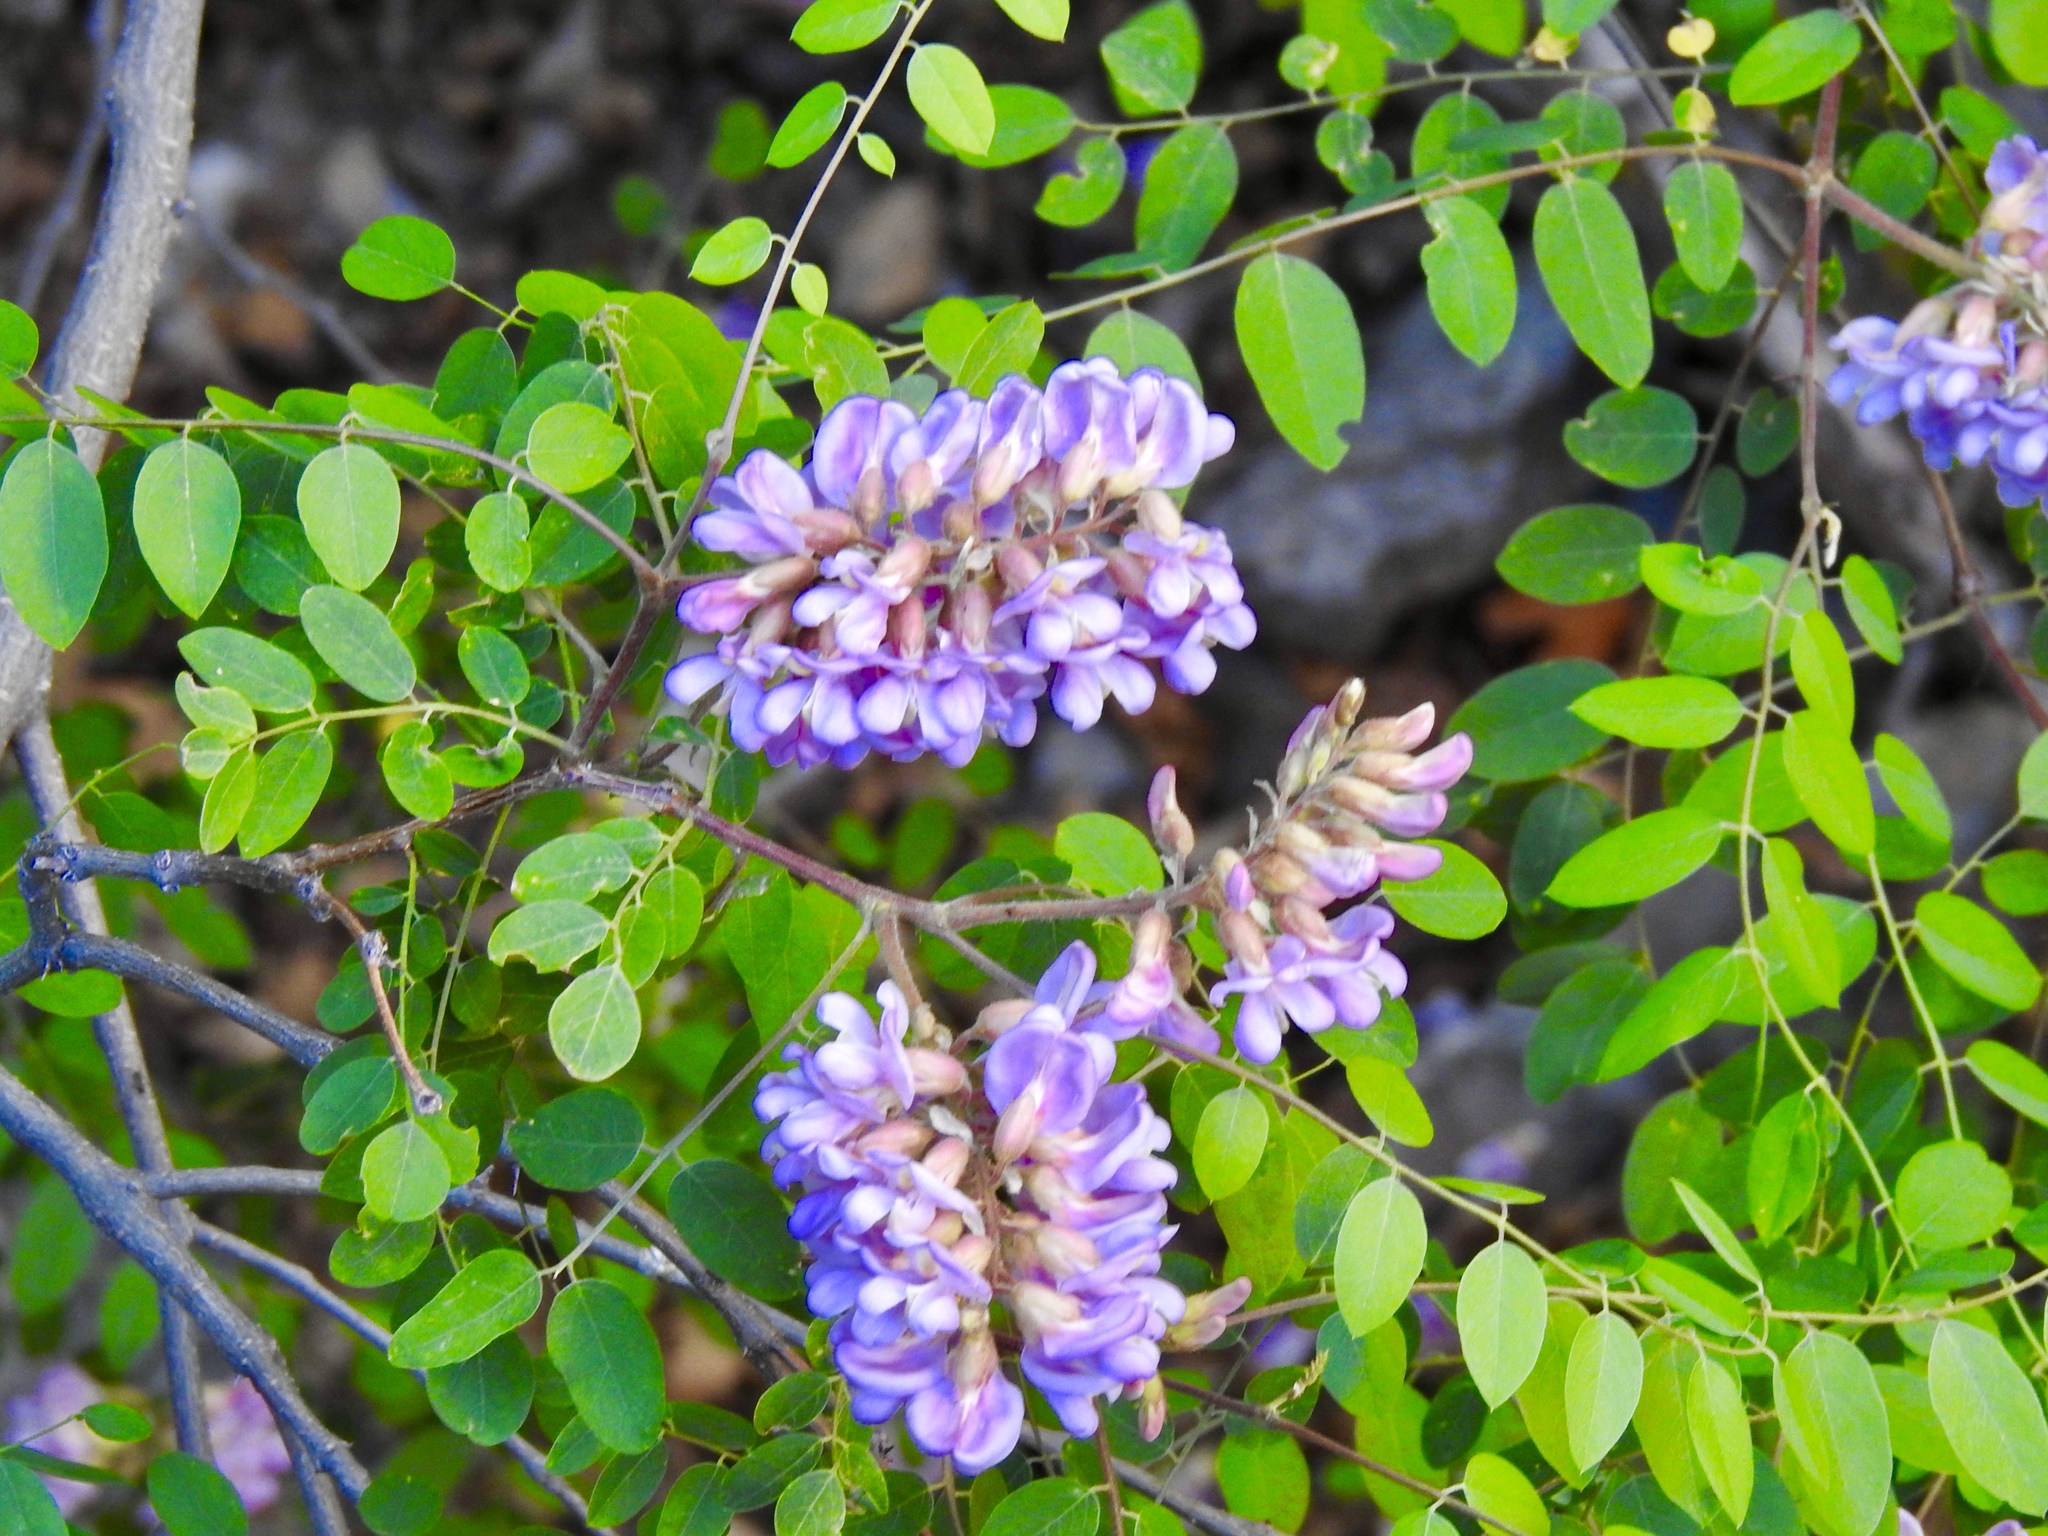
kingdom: Plantae
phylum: Tracheophyta
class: Magnoliopsida
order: Fabales
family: Fabaceae
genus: Robinia
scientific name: Robinia neomexicana
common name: New mexico locust
